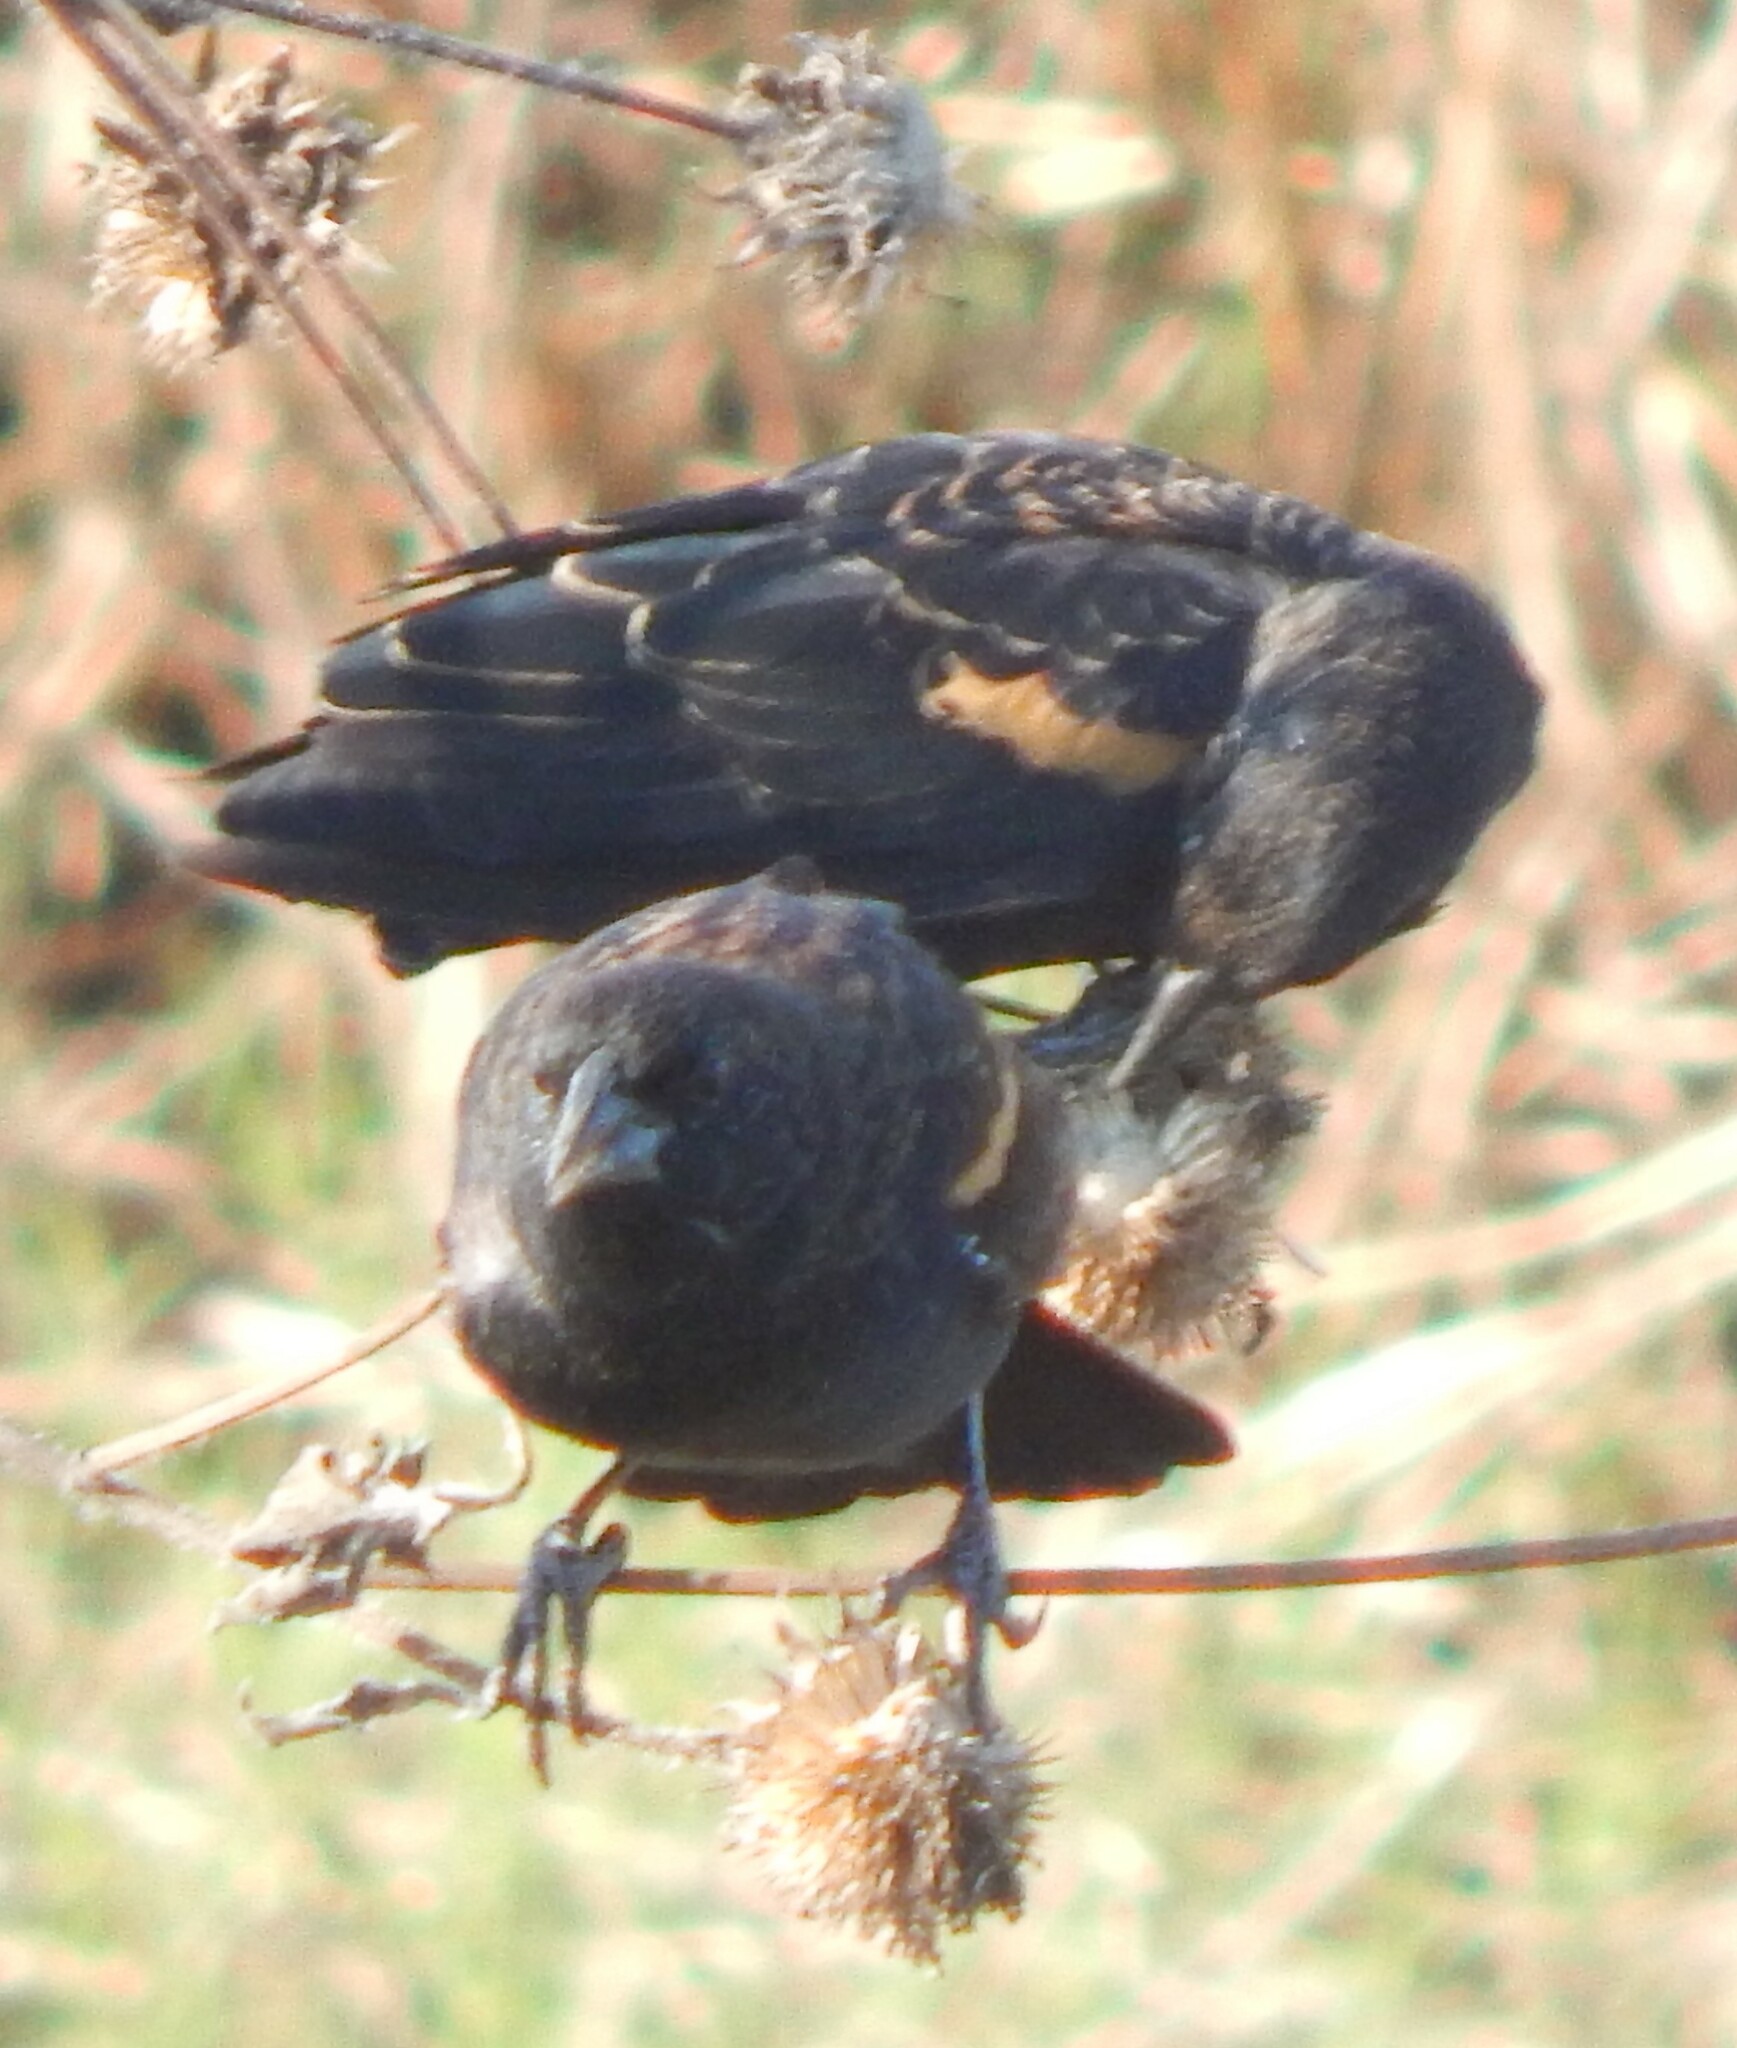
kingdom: Animalia
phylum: Chordata
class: Aves
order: Passeriformes
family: Icteridae
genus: Agelaius
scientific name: Agelaius phoeniceus
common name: Red-winged blackbird
